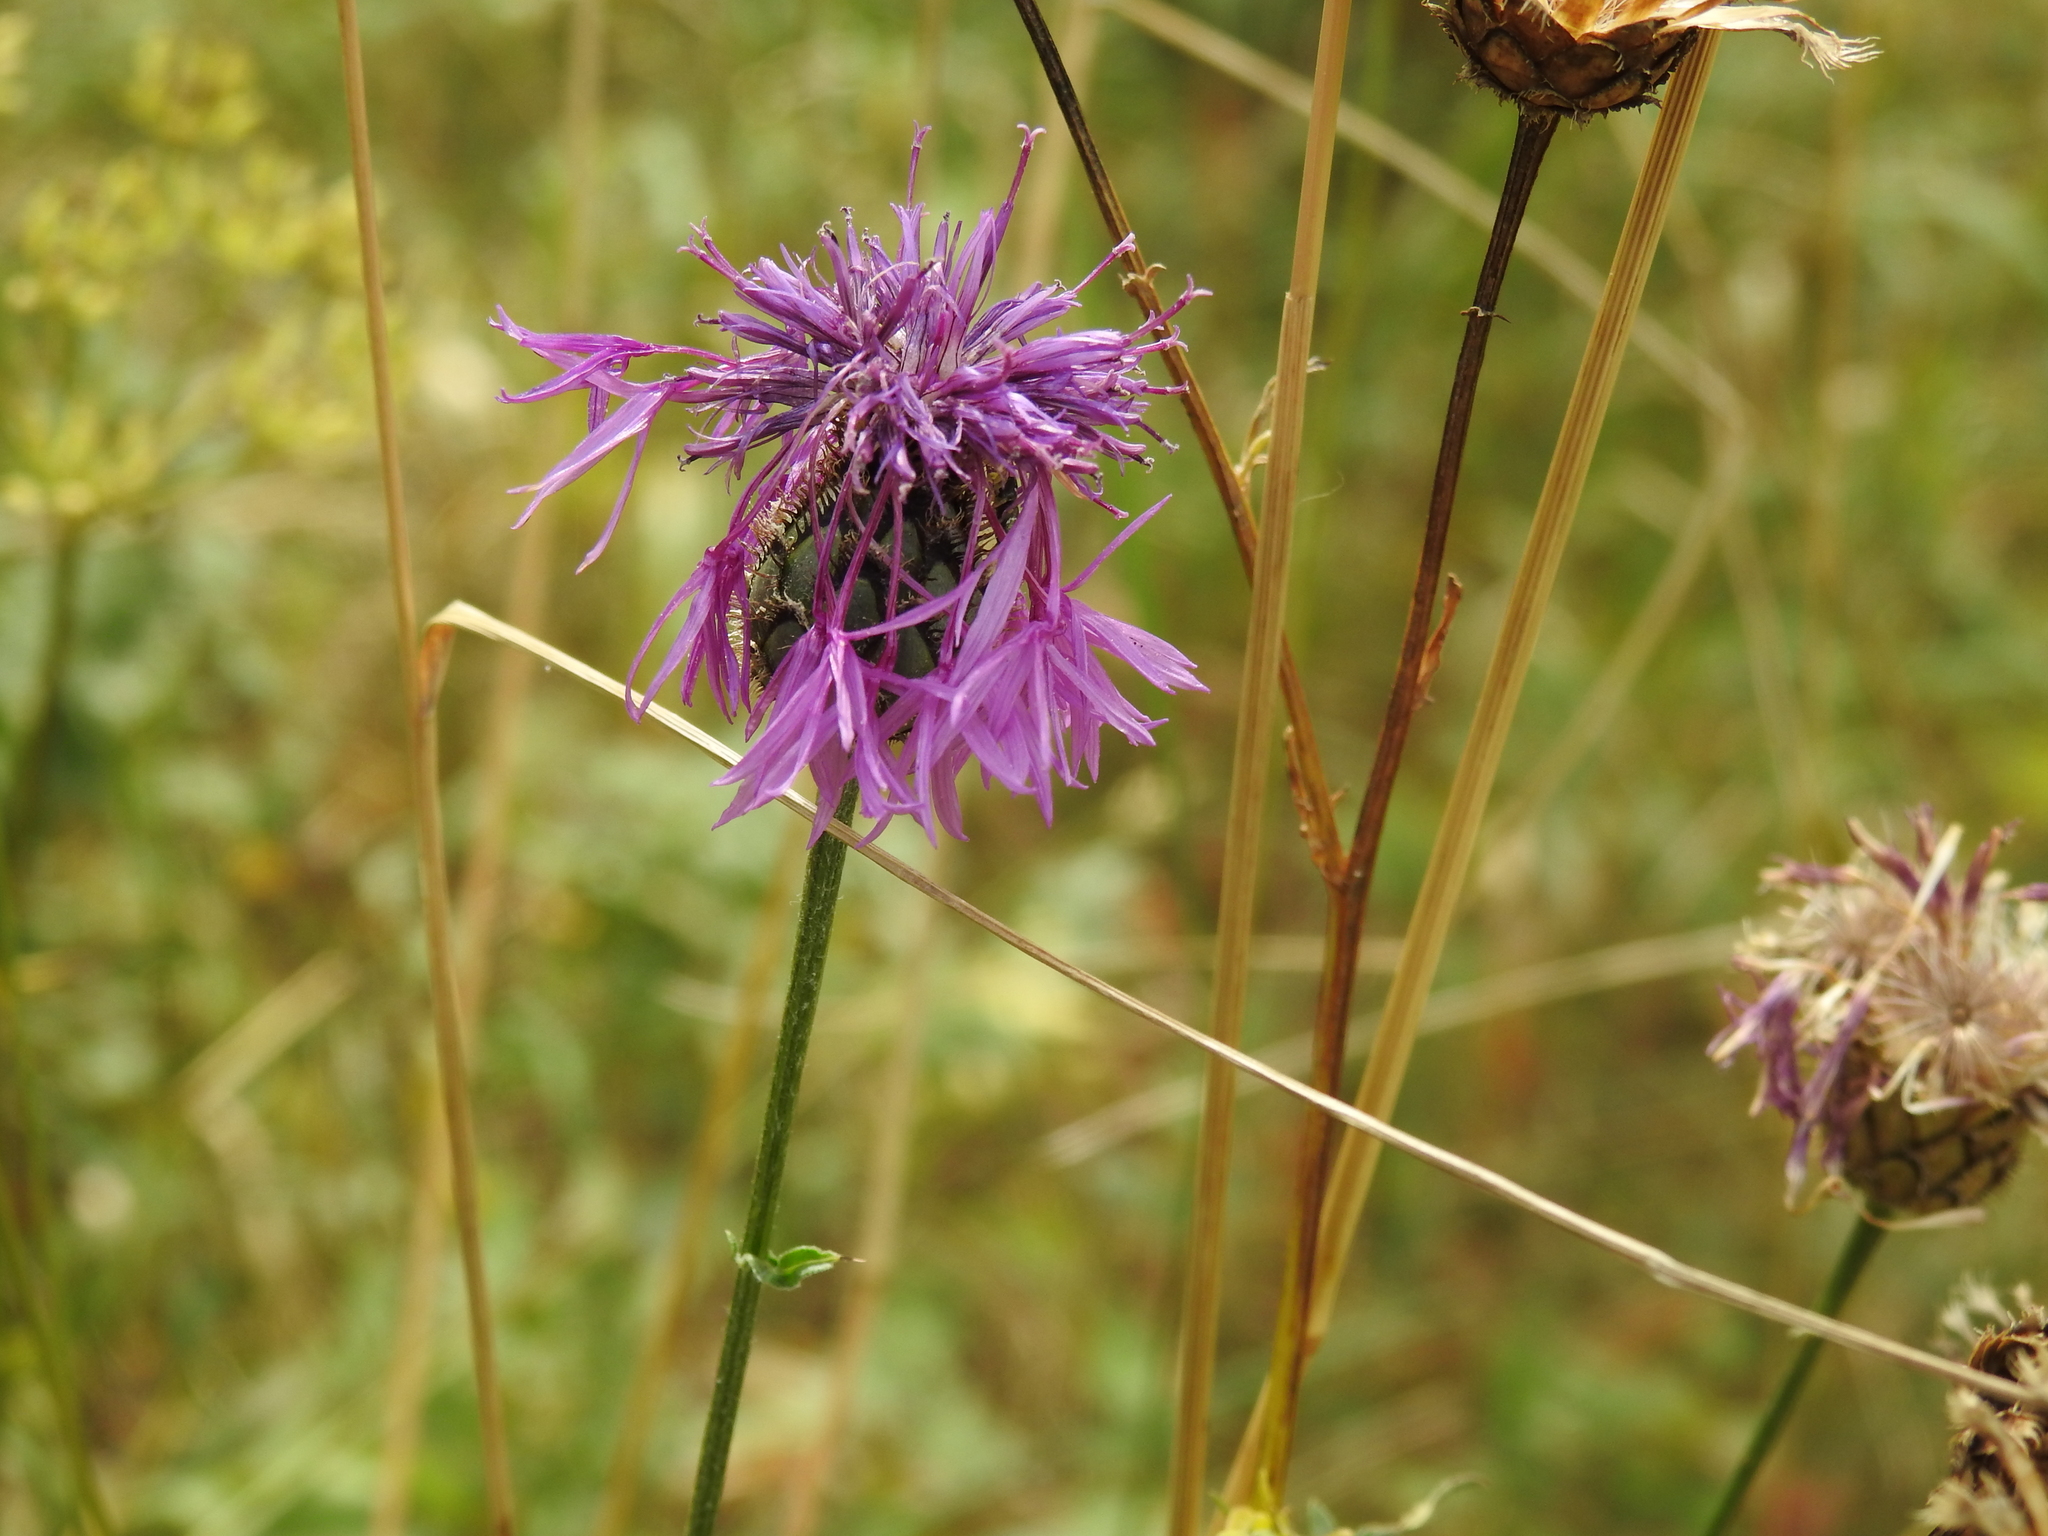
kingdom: Plantae
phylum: Tracheophyta
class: Magnoliopsida
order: Asterales
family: Asteraceae
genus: Centaurea
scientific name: Centaurea scabiosa
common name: Greater knapweed
